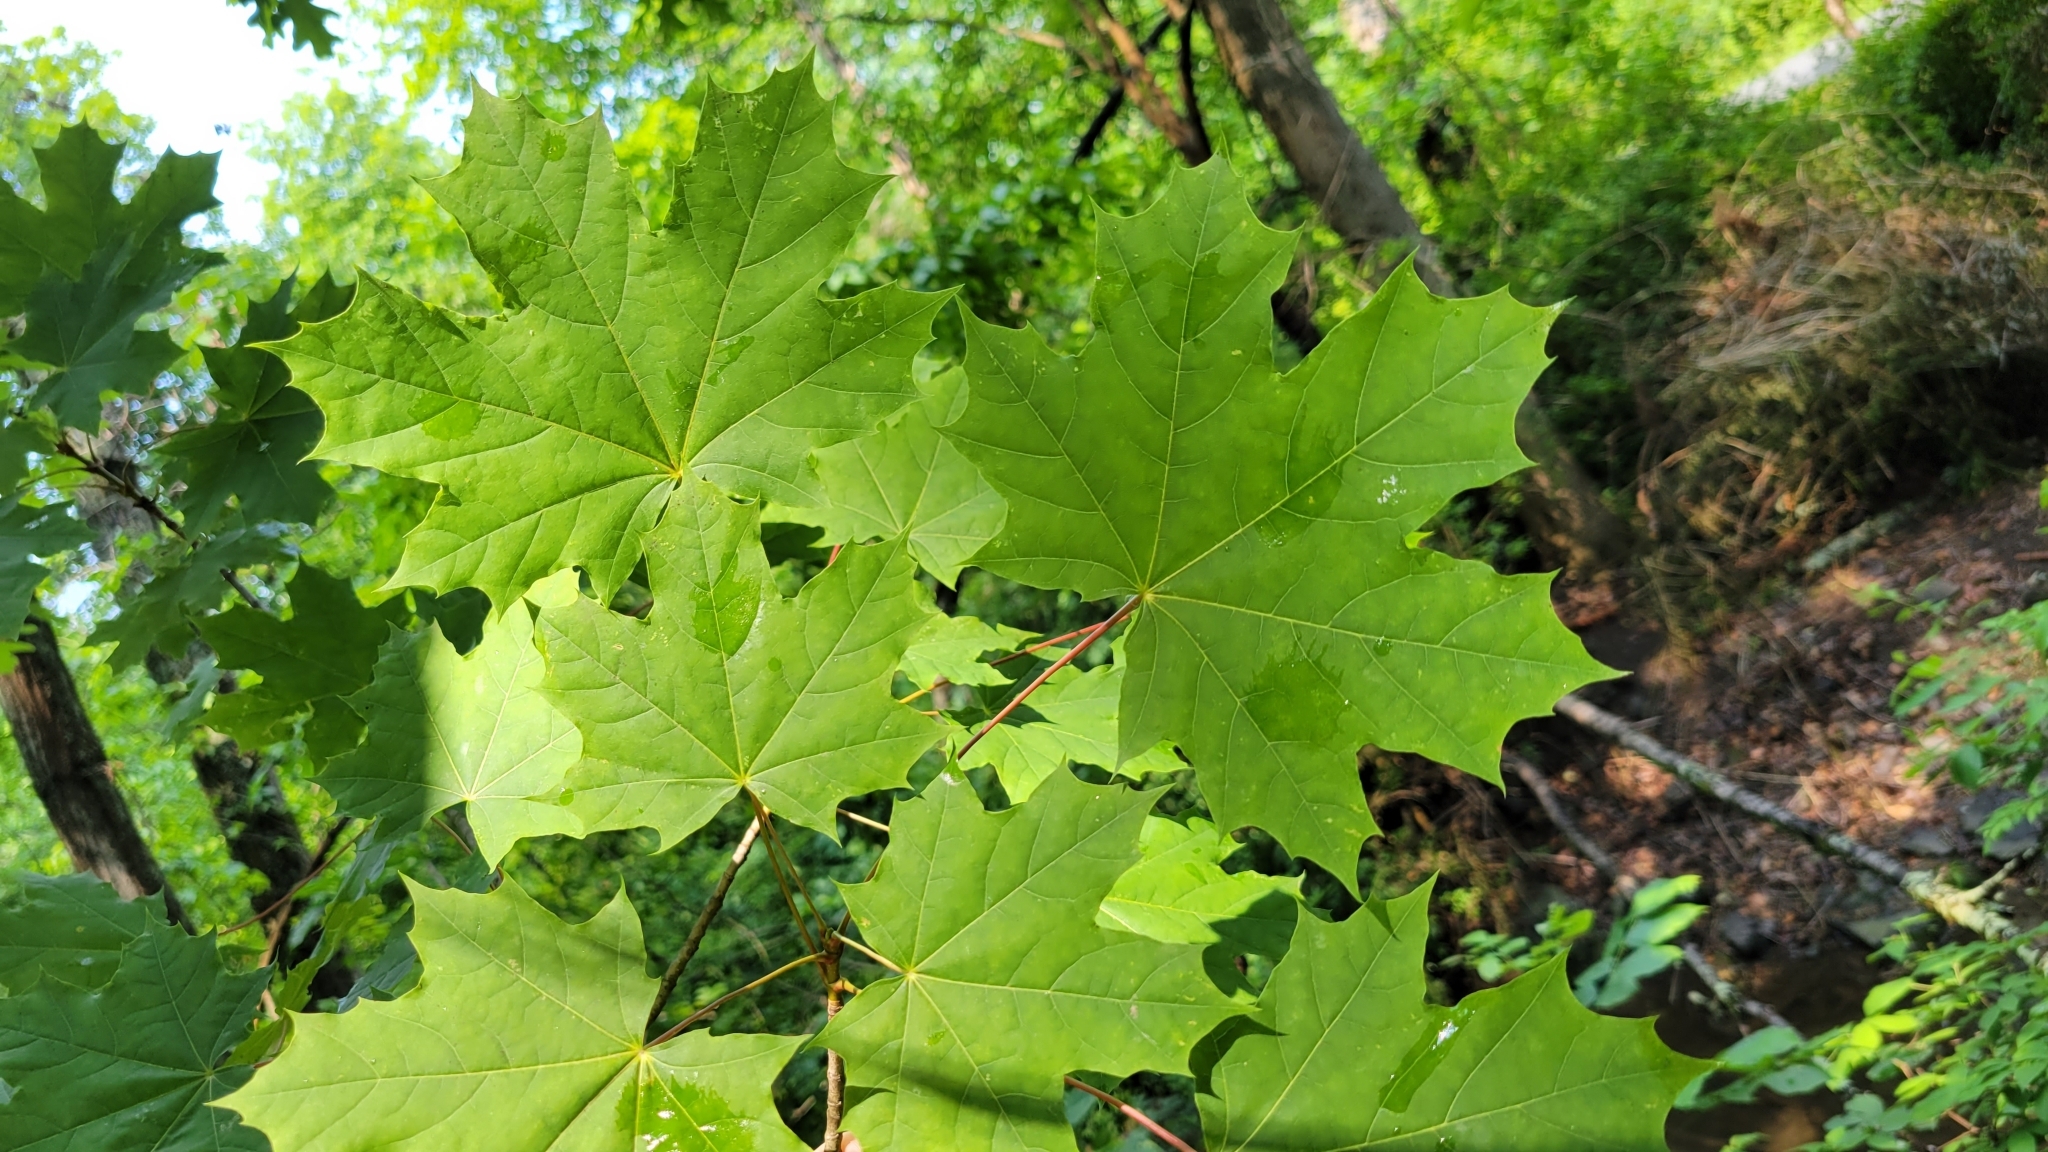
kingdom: Plantae
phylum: Tracheophyta
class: Magnoliopsida
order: Sapindales
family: Sapindaceae
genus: Acer
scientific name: Acer platanoides
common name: Norway maple
